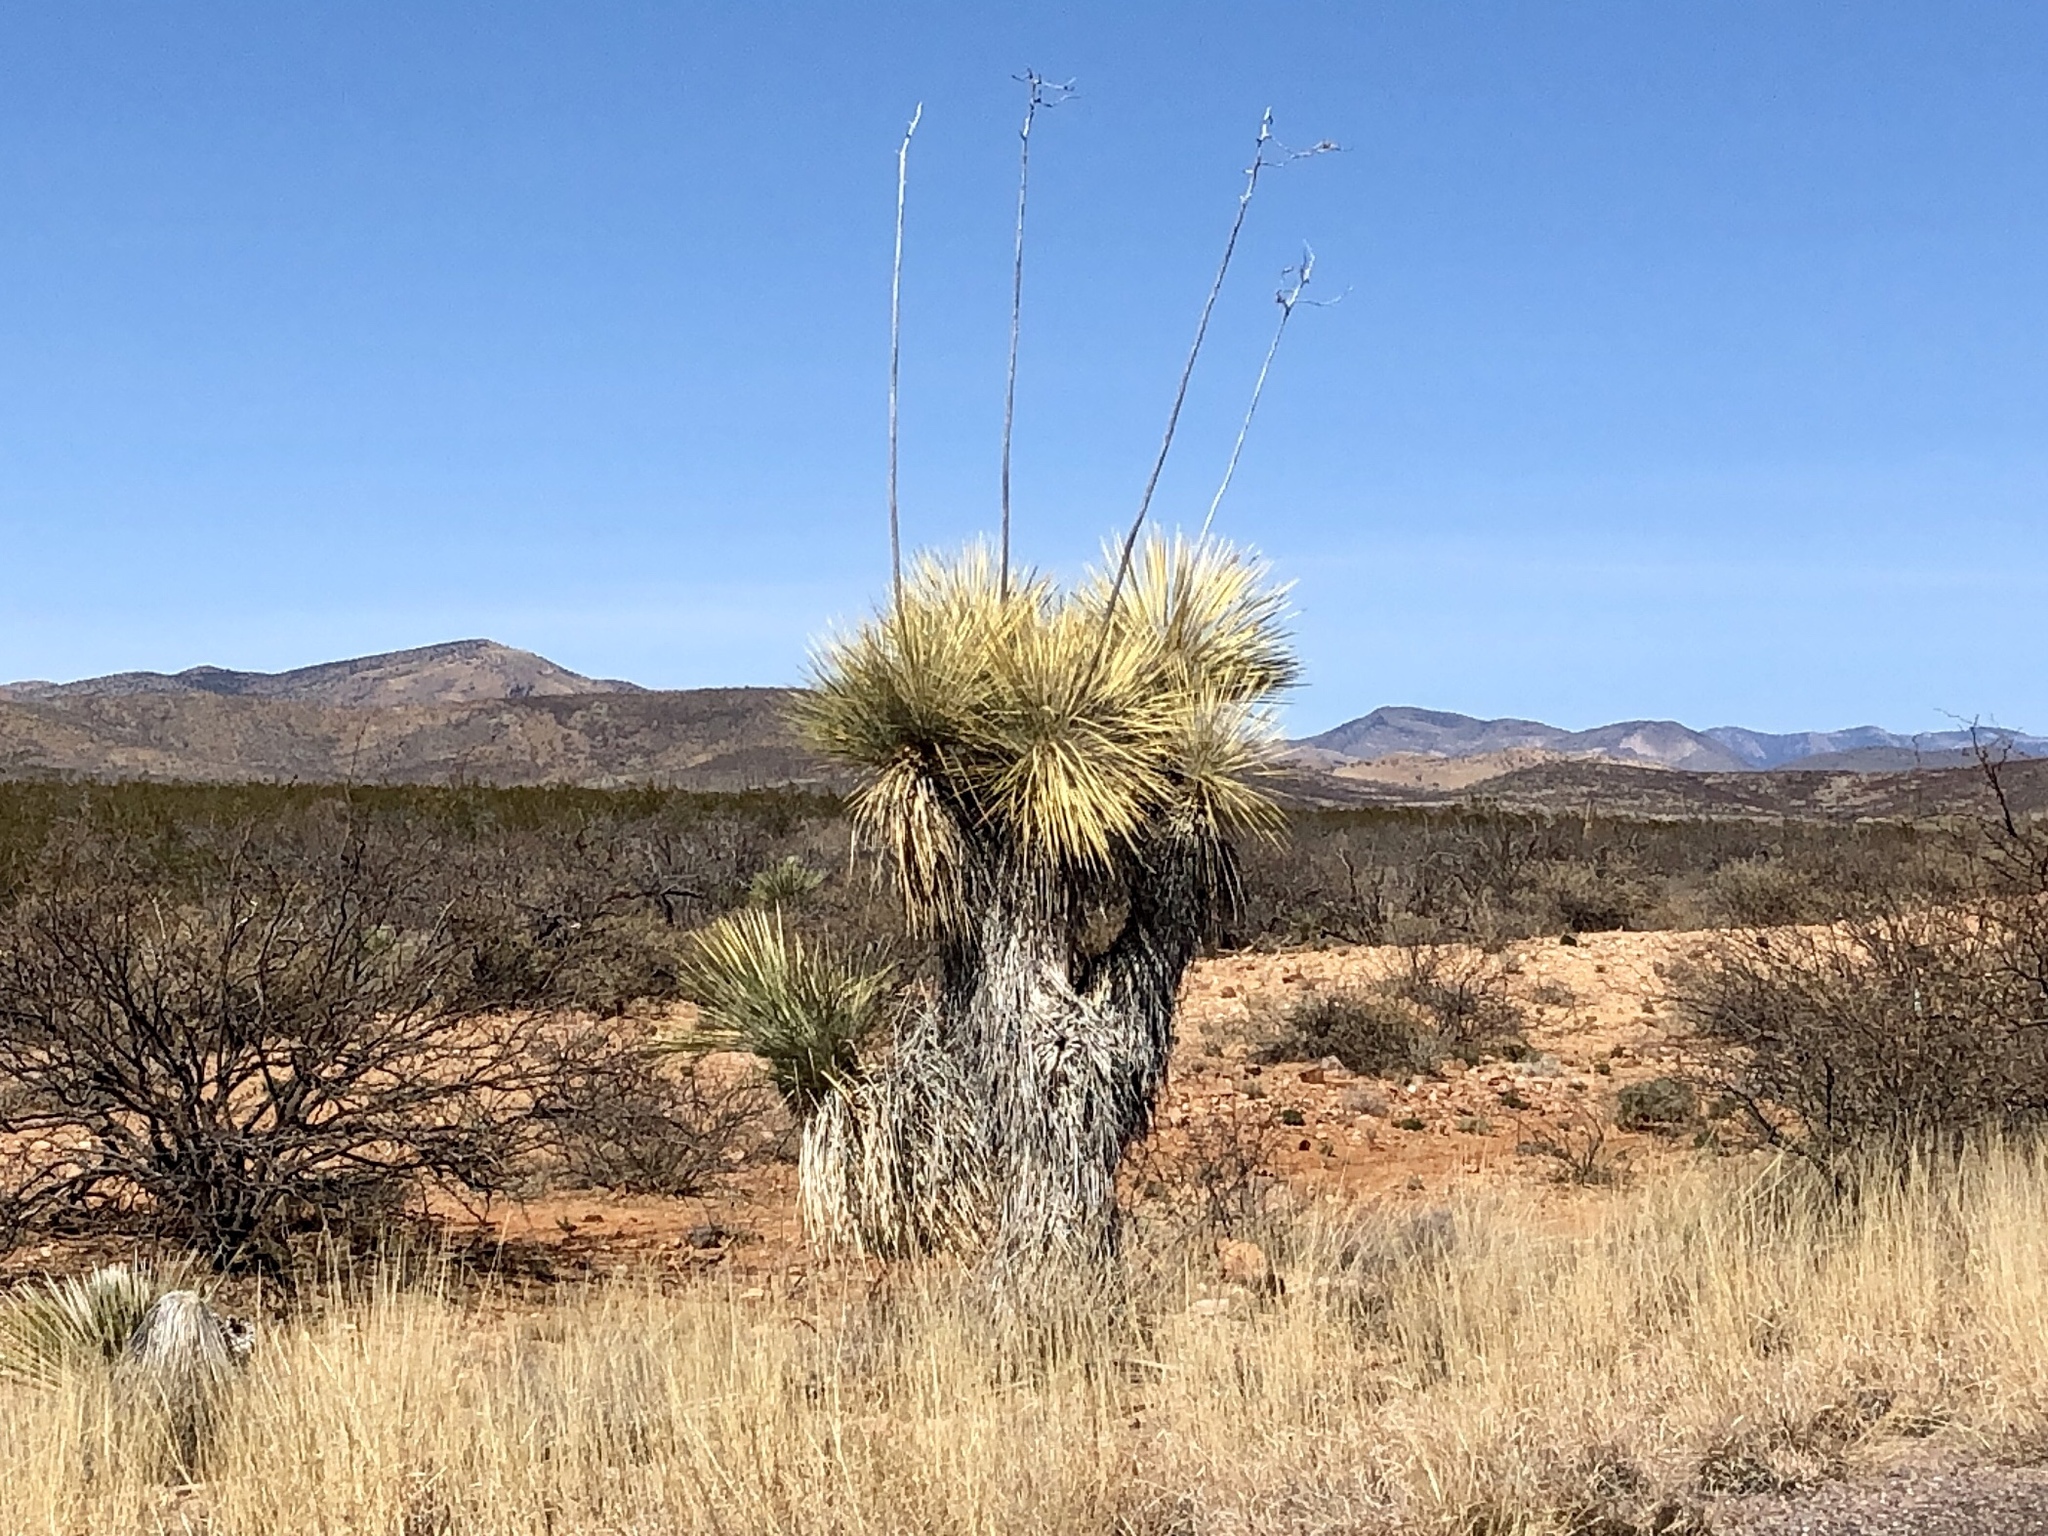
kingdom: Plantae
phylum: Tracheophyta
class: Liliopsida
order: Asparagales
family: Asparagaceae
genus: Yucca
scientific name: Yucca elata
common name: Palmella
